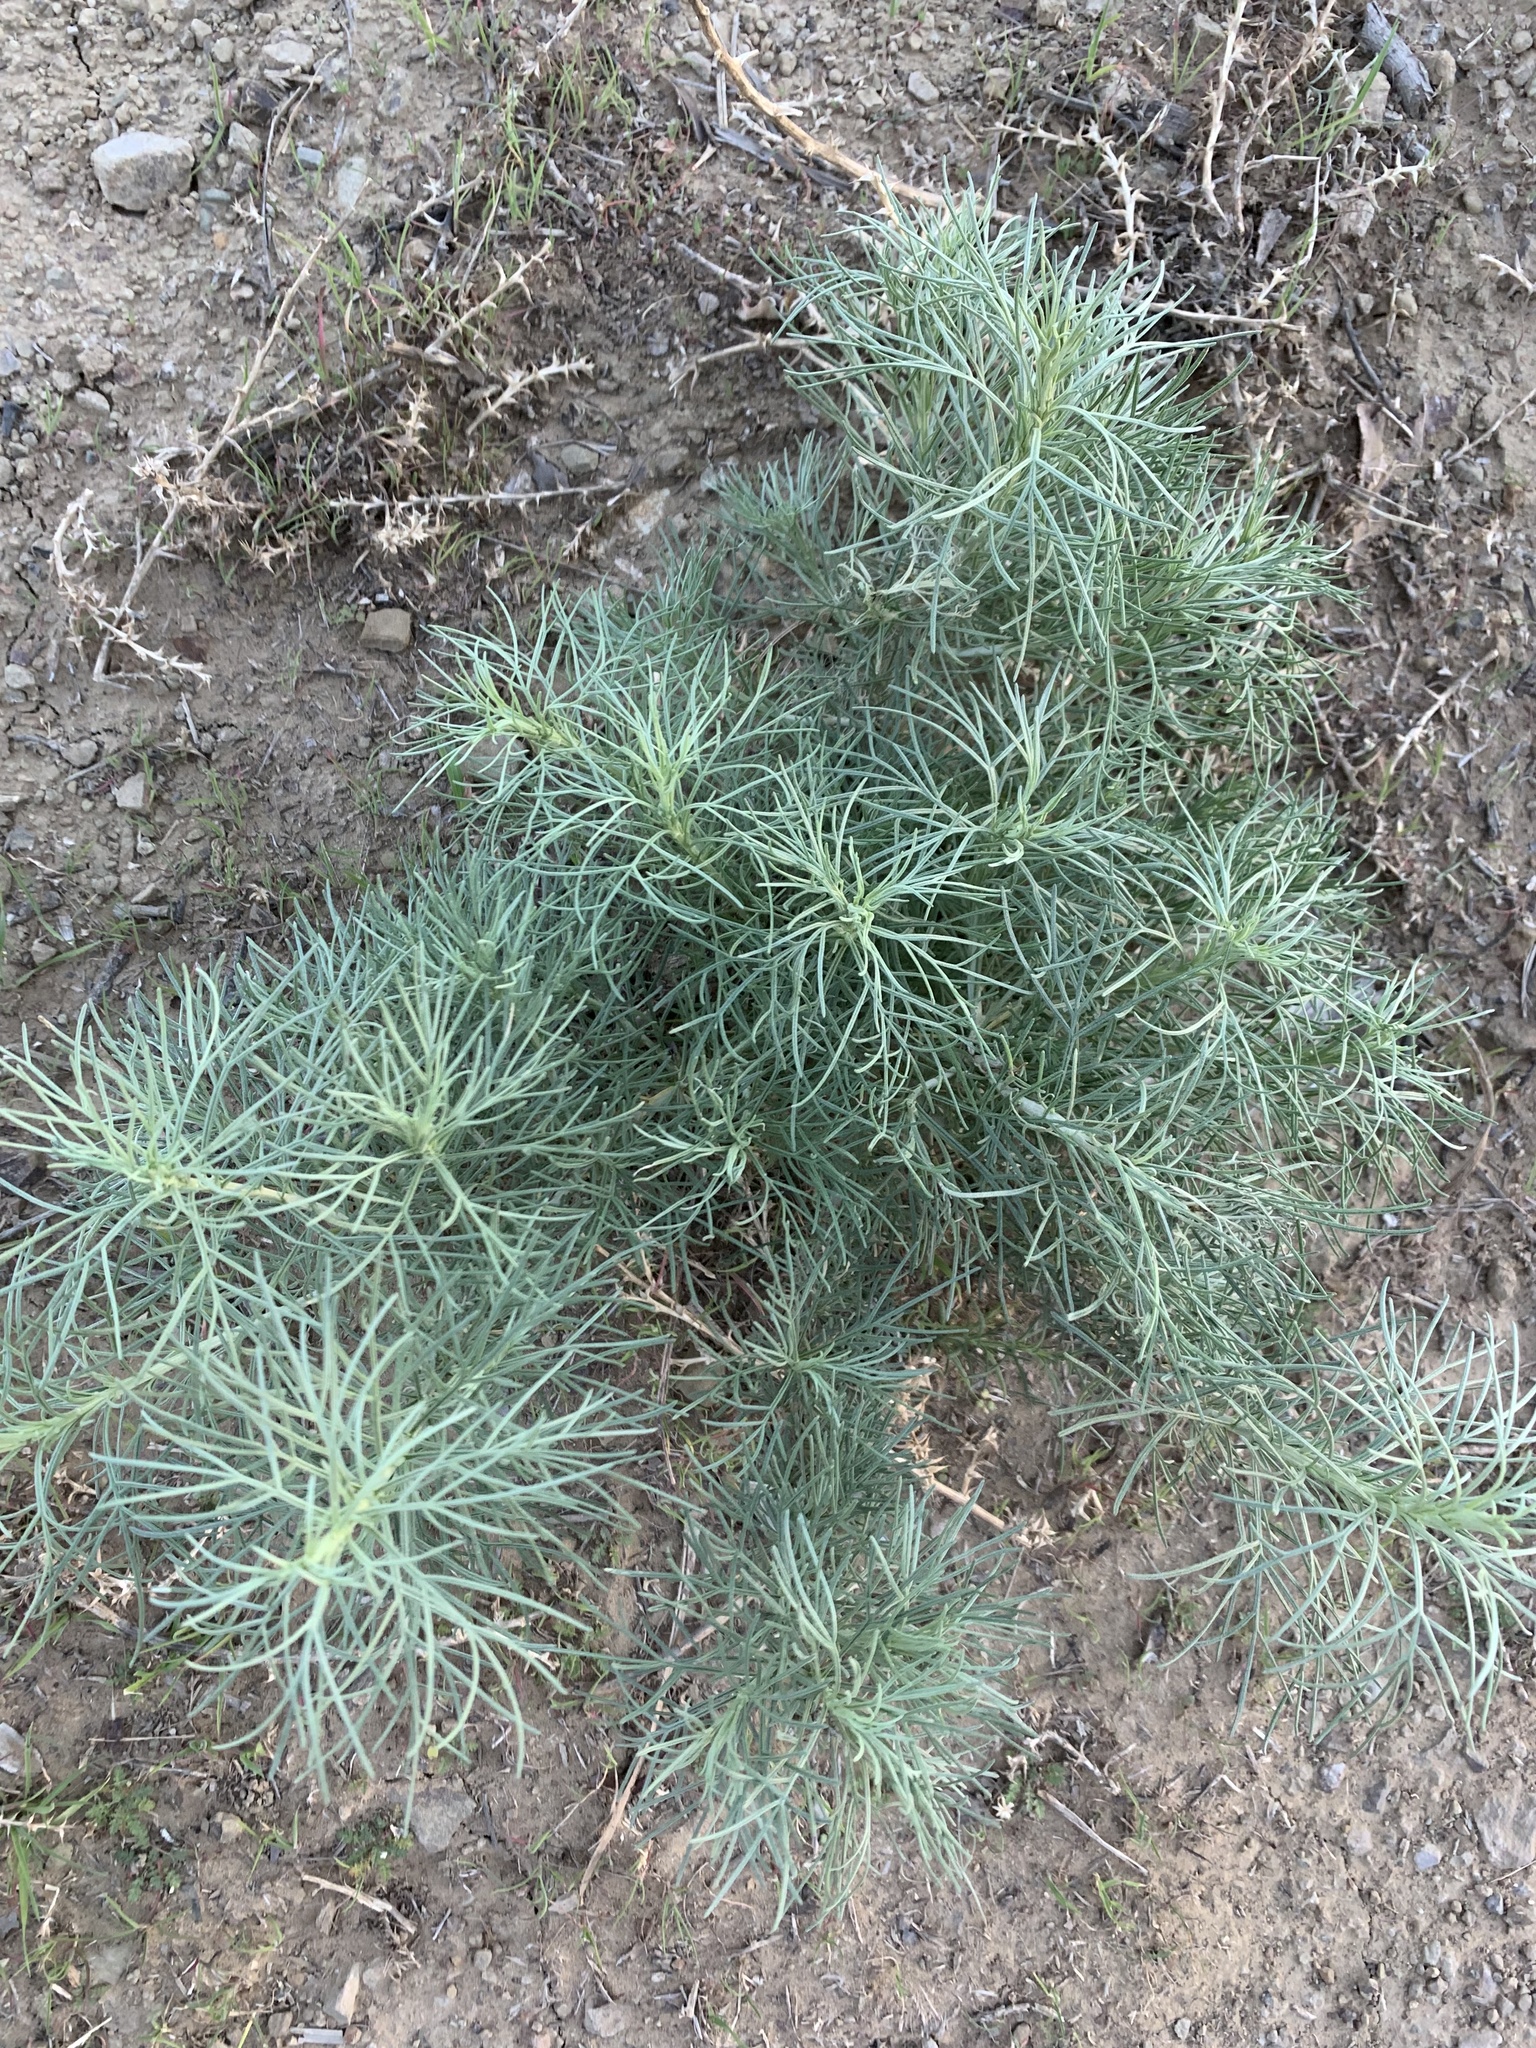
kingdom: Plantae
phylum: Tracheophyta
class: Magnoliopsida
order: Asterales
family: Asteraceae
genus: Artemisia
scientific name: Artemisia californica
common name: California sagebrush
